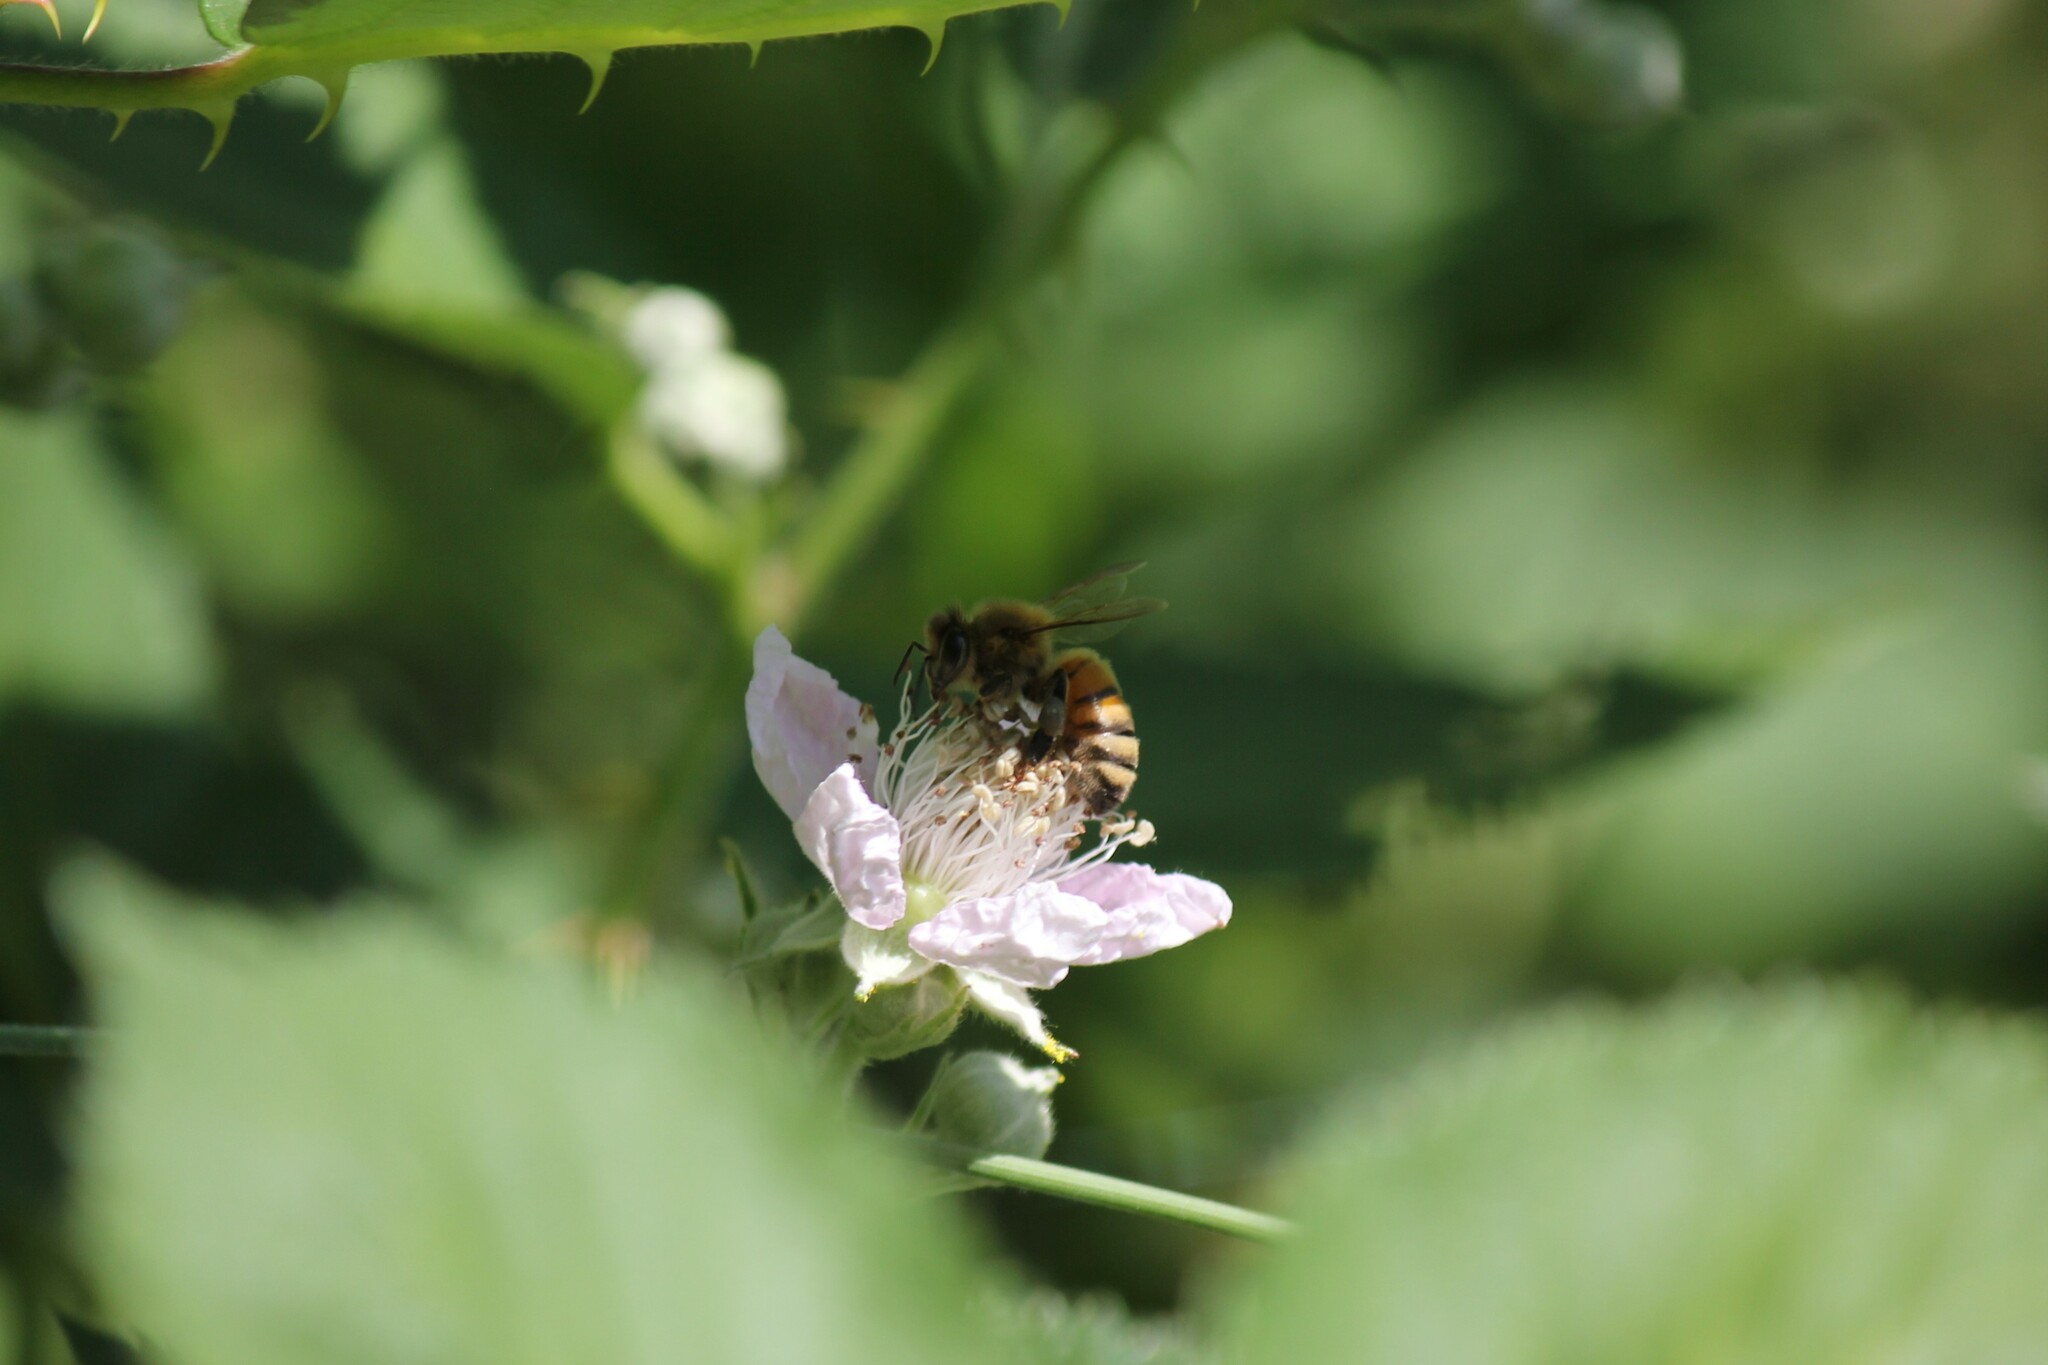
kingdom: Animalia
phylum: Arthropoda
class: Insecta
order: Hymenoptera
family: Apidae
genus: Apis
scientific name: Apis mellifera
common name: Honey bee
